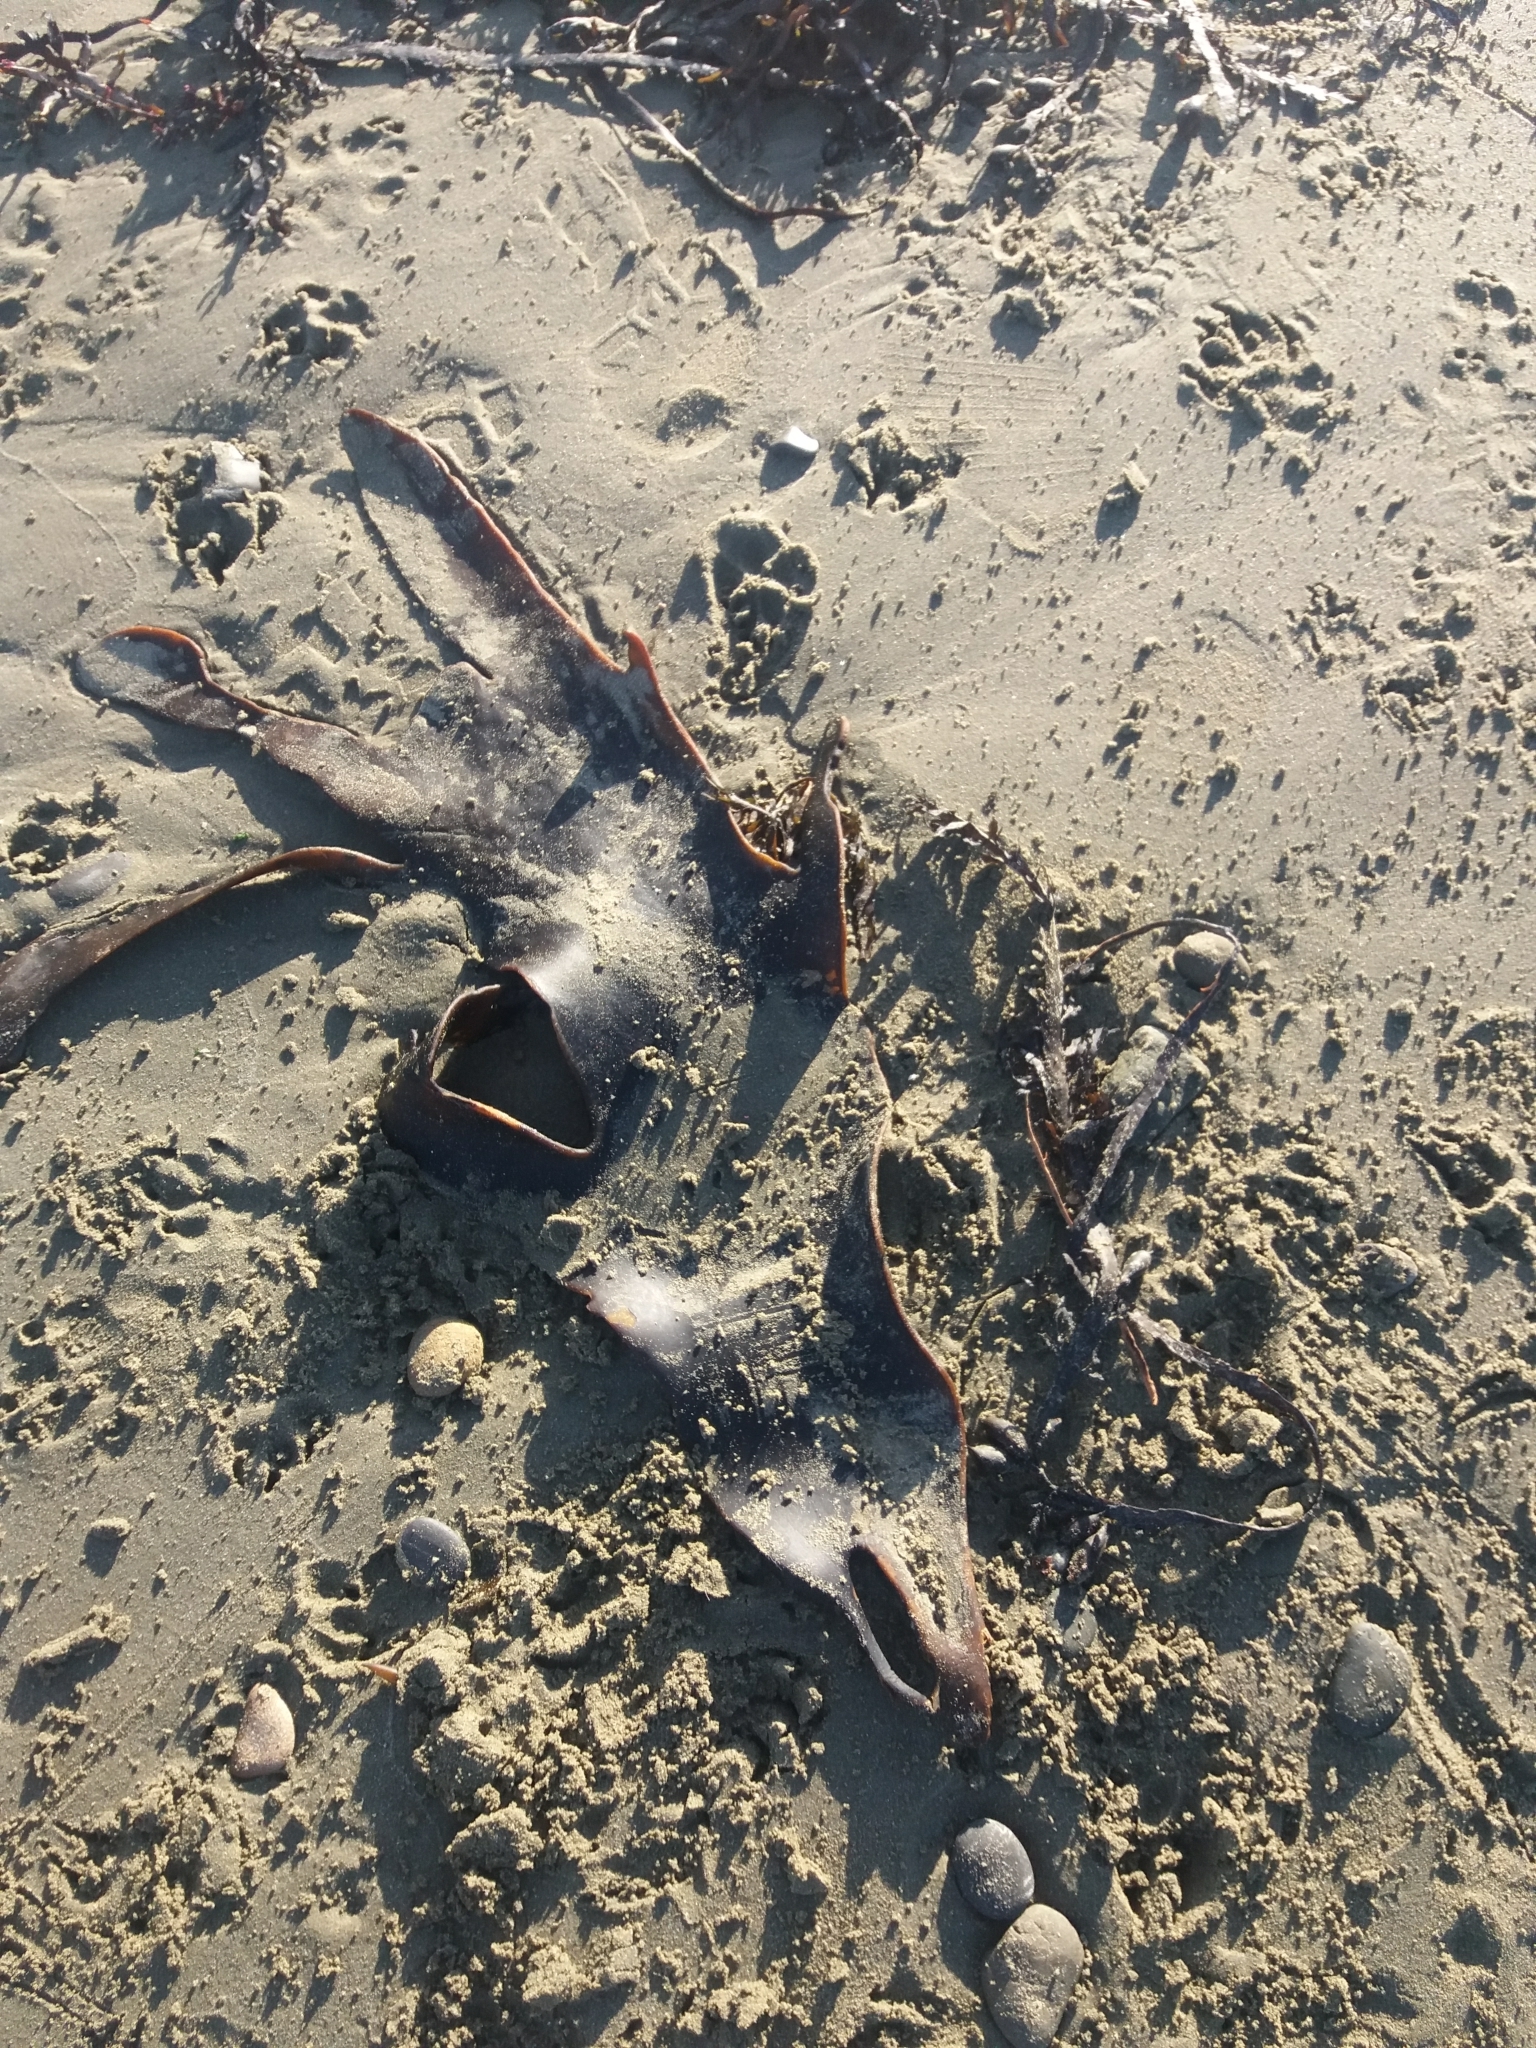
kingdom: Chromista
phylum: Ochrophyta
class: Phaeophyceae
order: Fucales
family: Durvillaeaceae
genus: Durvillaea
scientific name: Durvillaea antarctica
